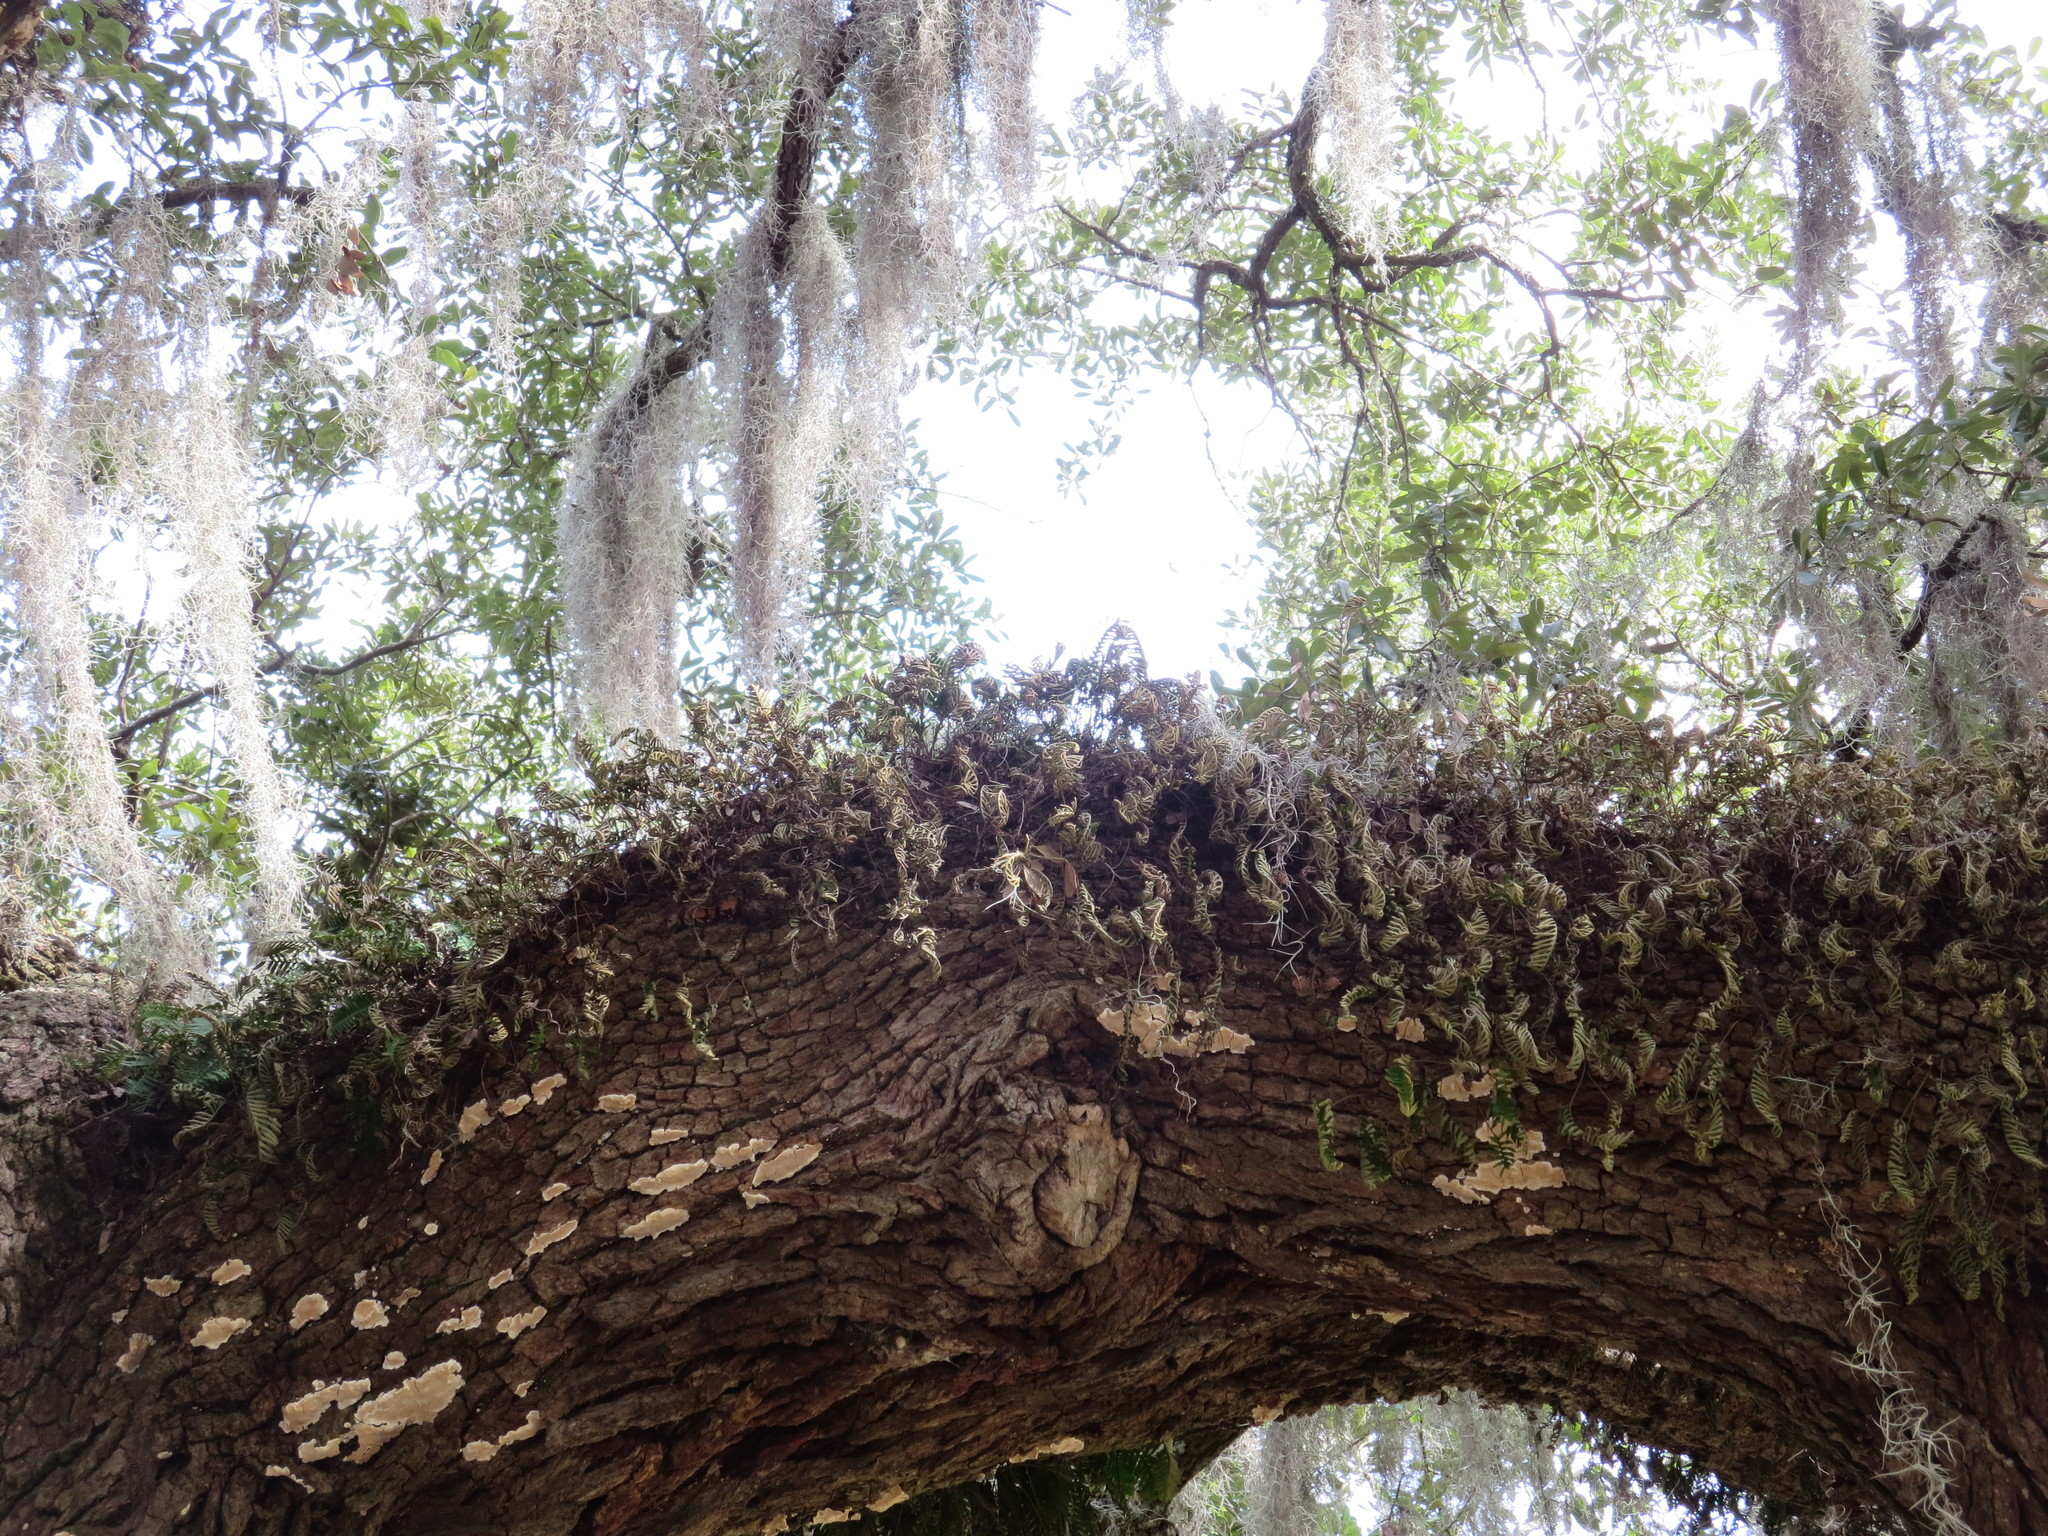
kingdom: Plantae
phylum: Tracheophyta
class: Polypodiopsida
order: Polypodiales
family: Polypodiaceae
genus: Pleopeltis
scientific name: Pleopeltis michauxiana
